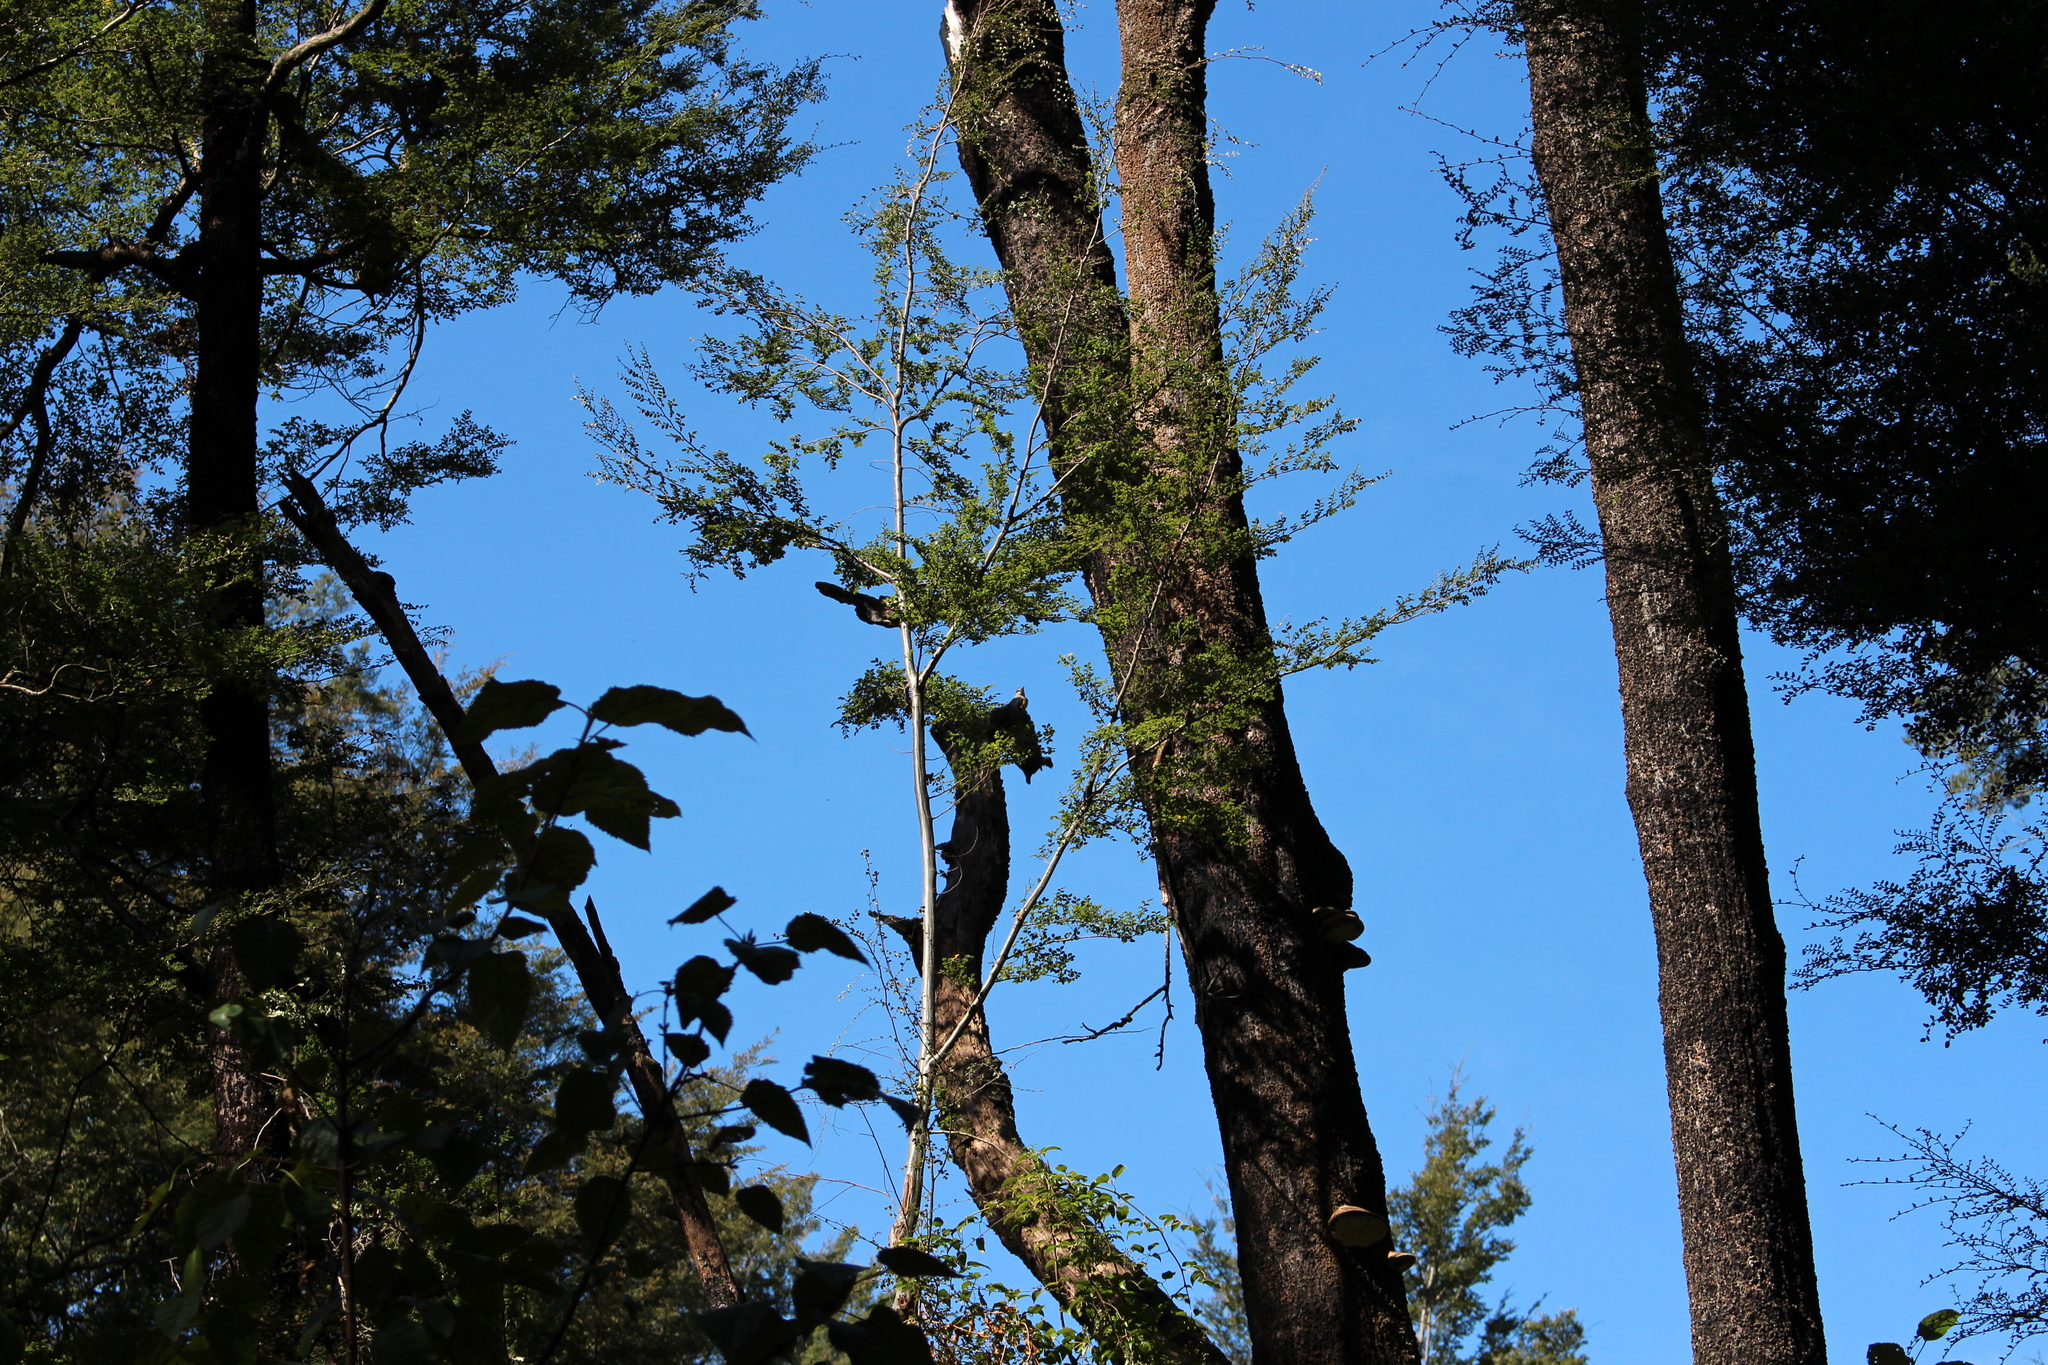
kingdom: Animalia
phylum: Chordata
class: Aves
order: Coraciiformes
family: Alcedinidae
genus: Todiramphus
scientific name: Todiramphus sanctus
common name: Sacred kingfisher
